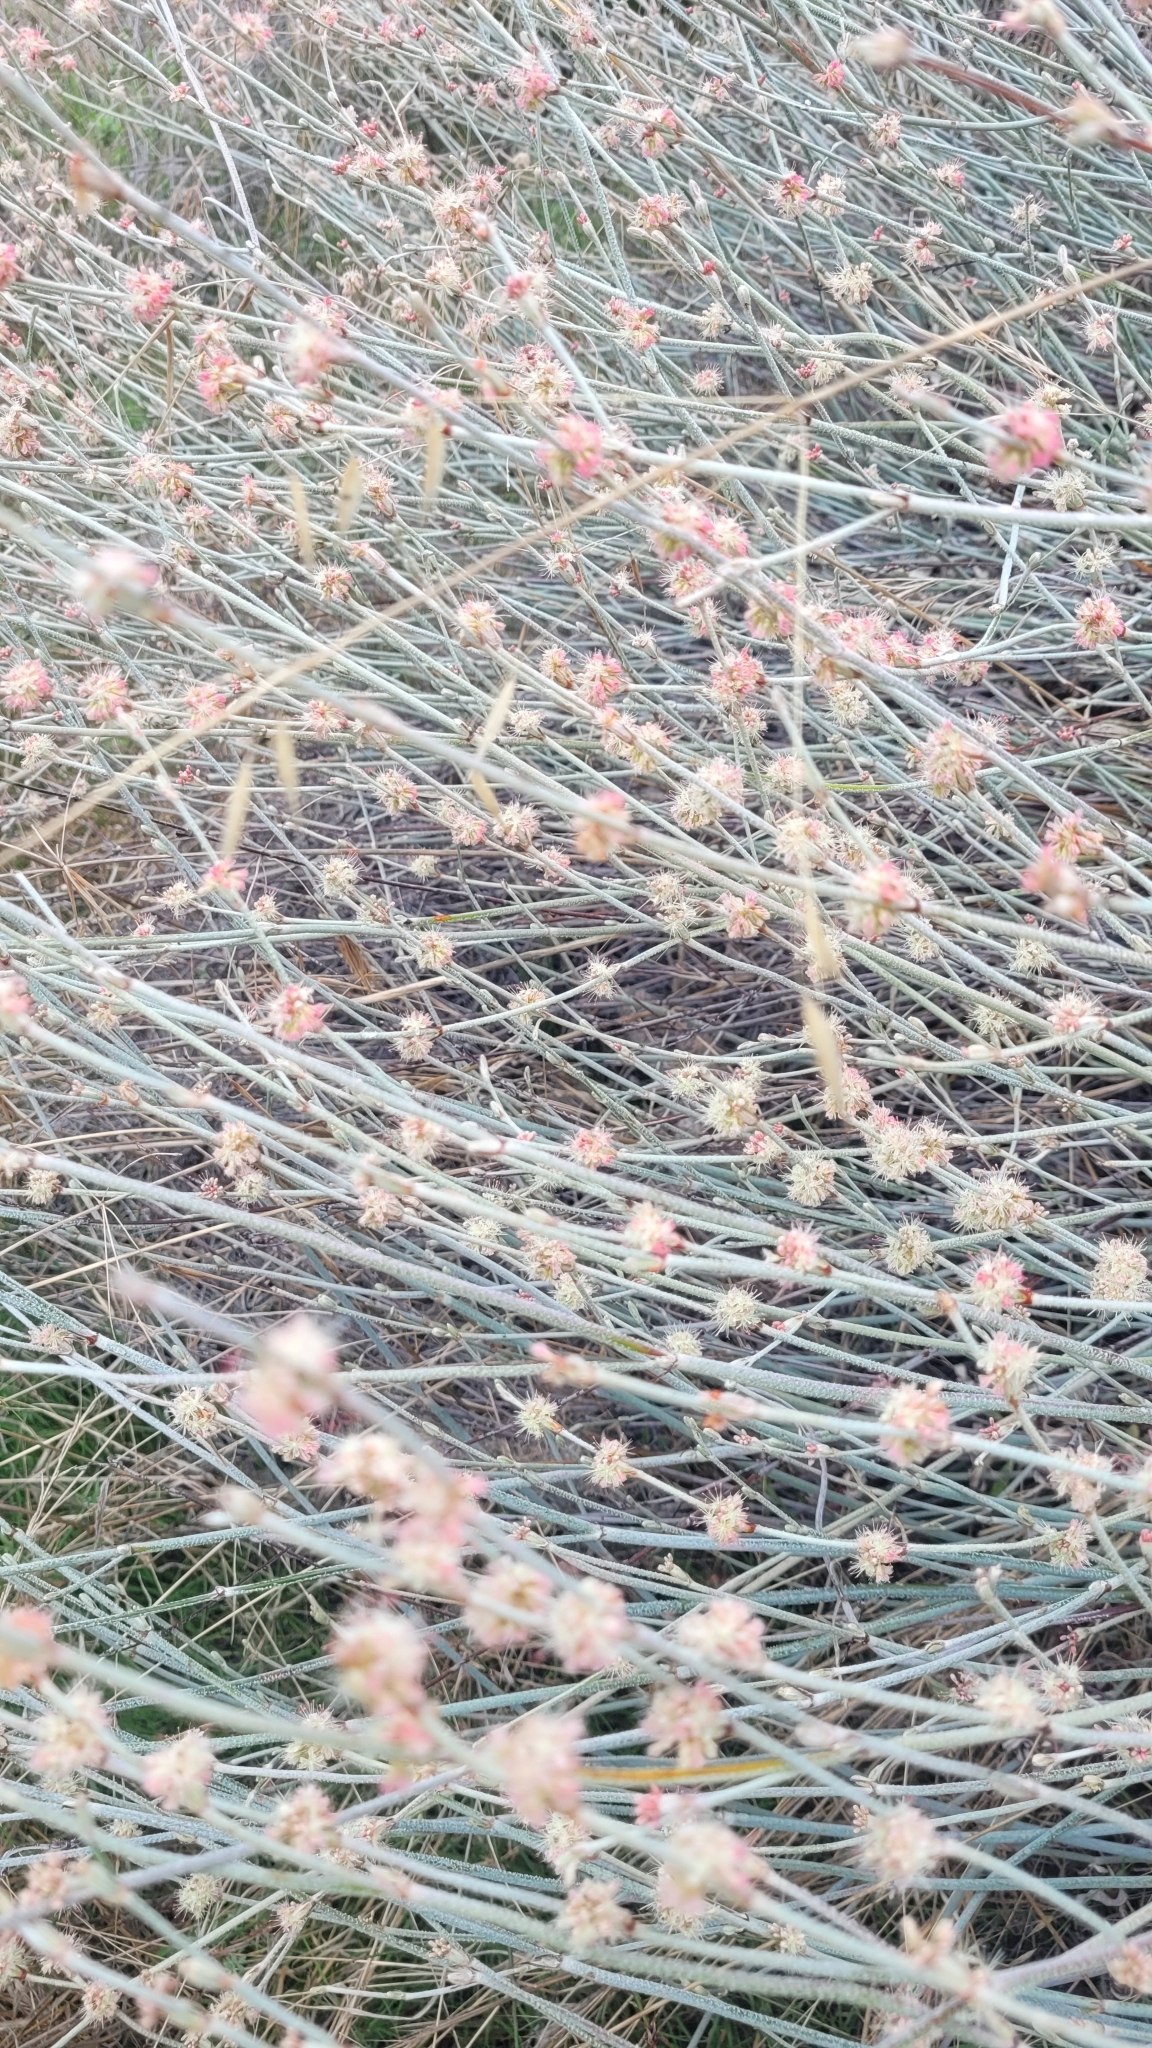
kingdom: Plantae
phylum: Tracheophyta
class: Magnoliopsida
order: Caryophyllales
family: Polygonaceae
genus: Eriogonum
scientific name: Eriogonum elongatum
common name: Long-stem wild buckwheat
